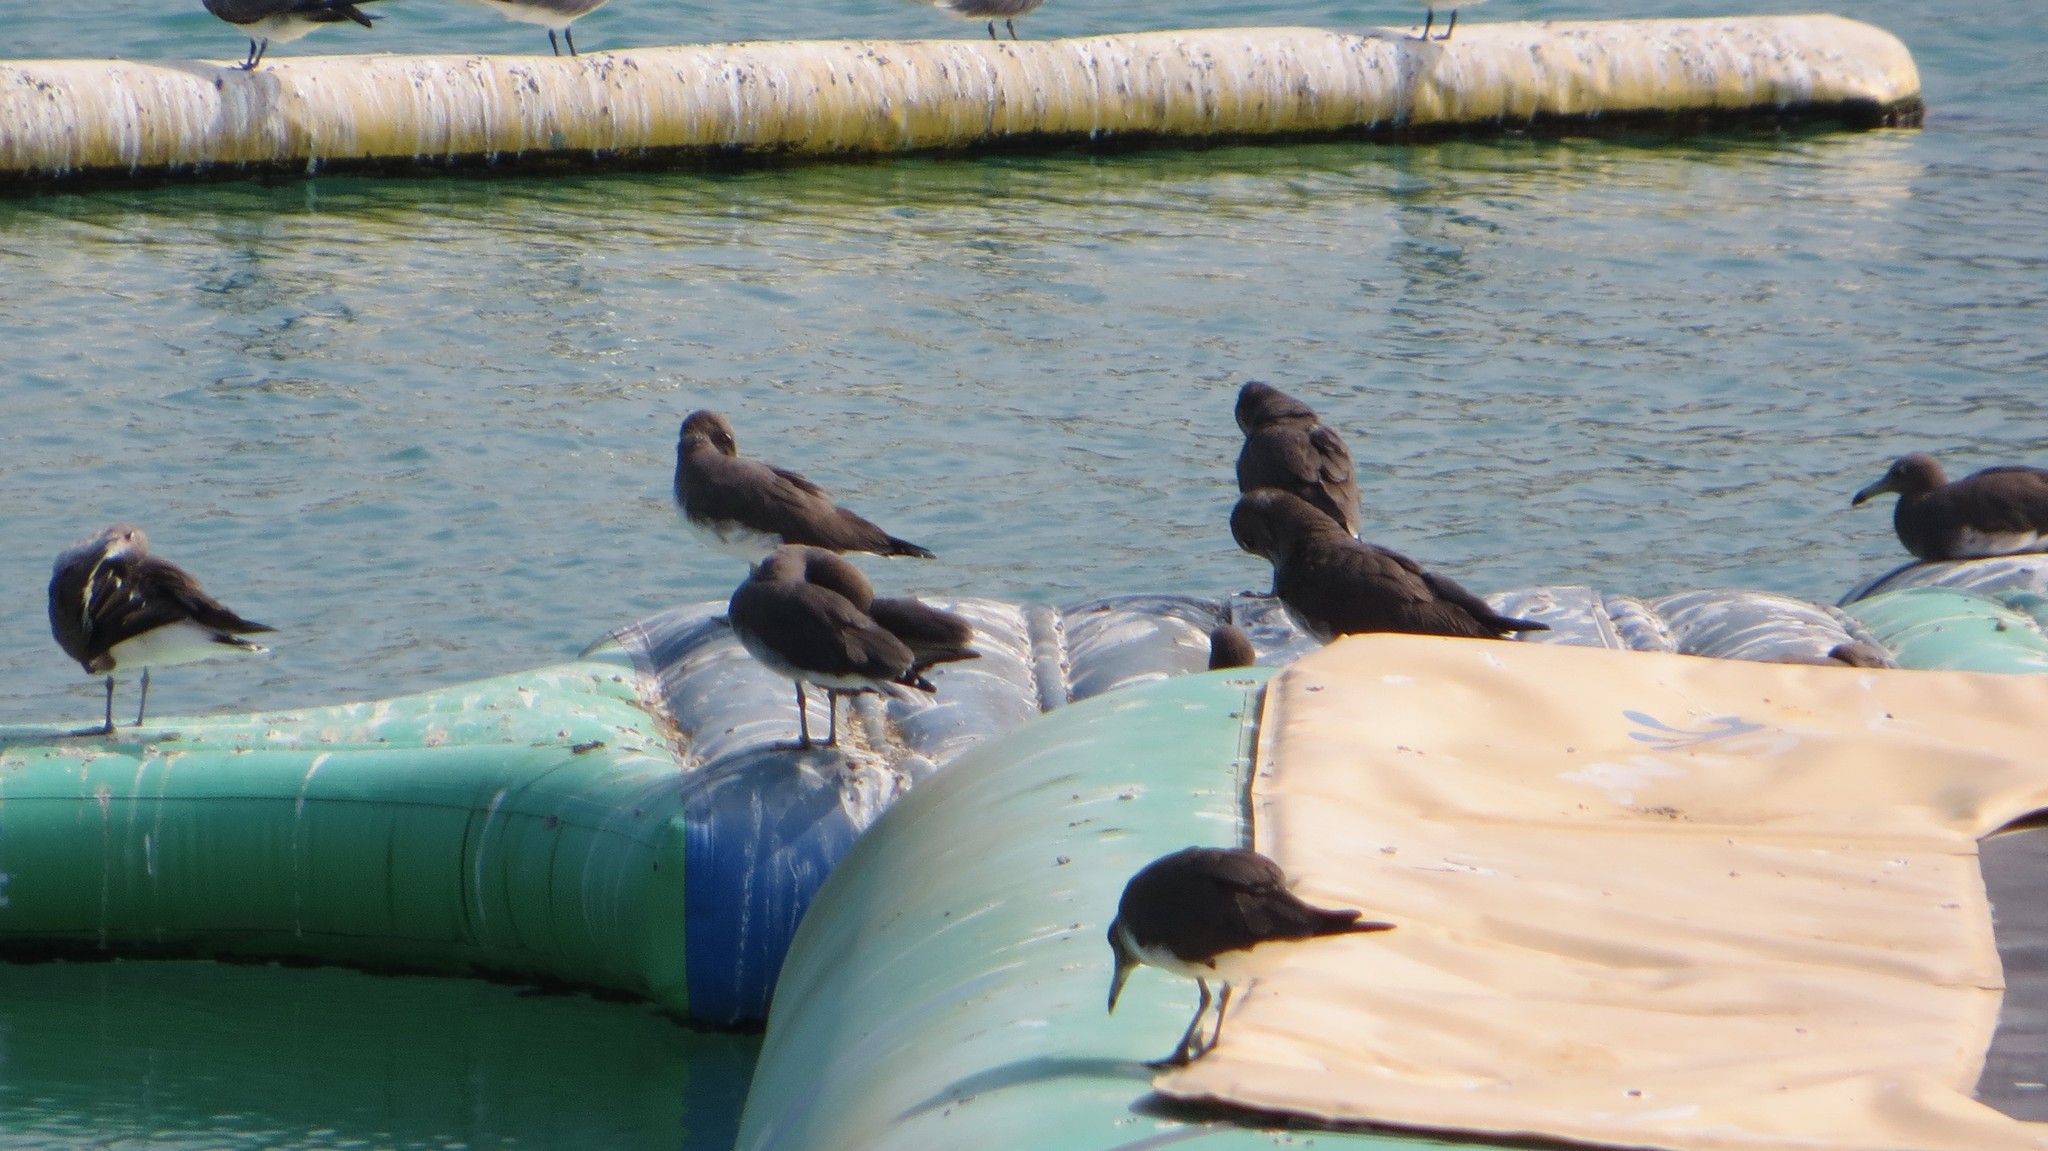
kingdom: Animalia
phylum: Chordata
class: Aves
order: Charadriiformes
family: Laridae
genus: Ichthyaetus
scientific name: Ichthyaetus hemprichii
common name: Sooty gull
